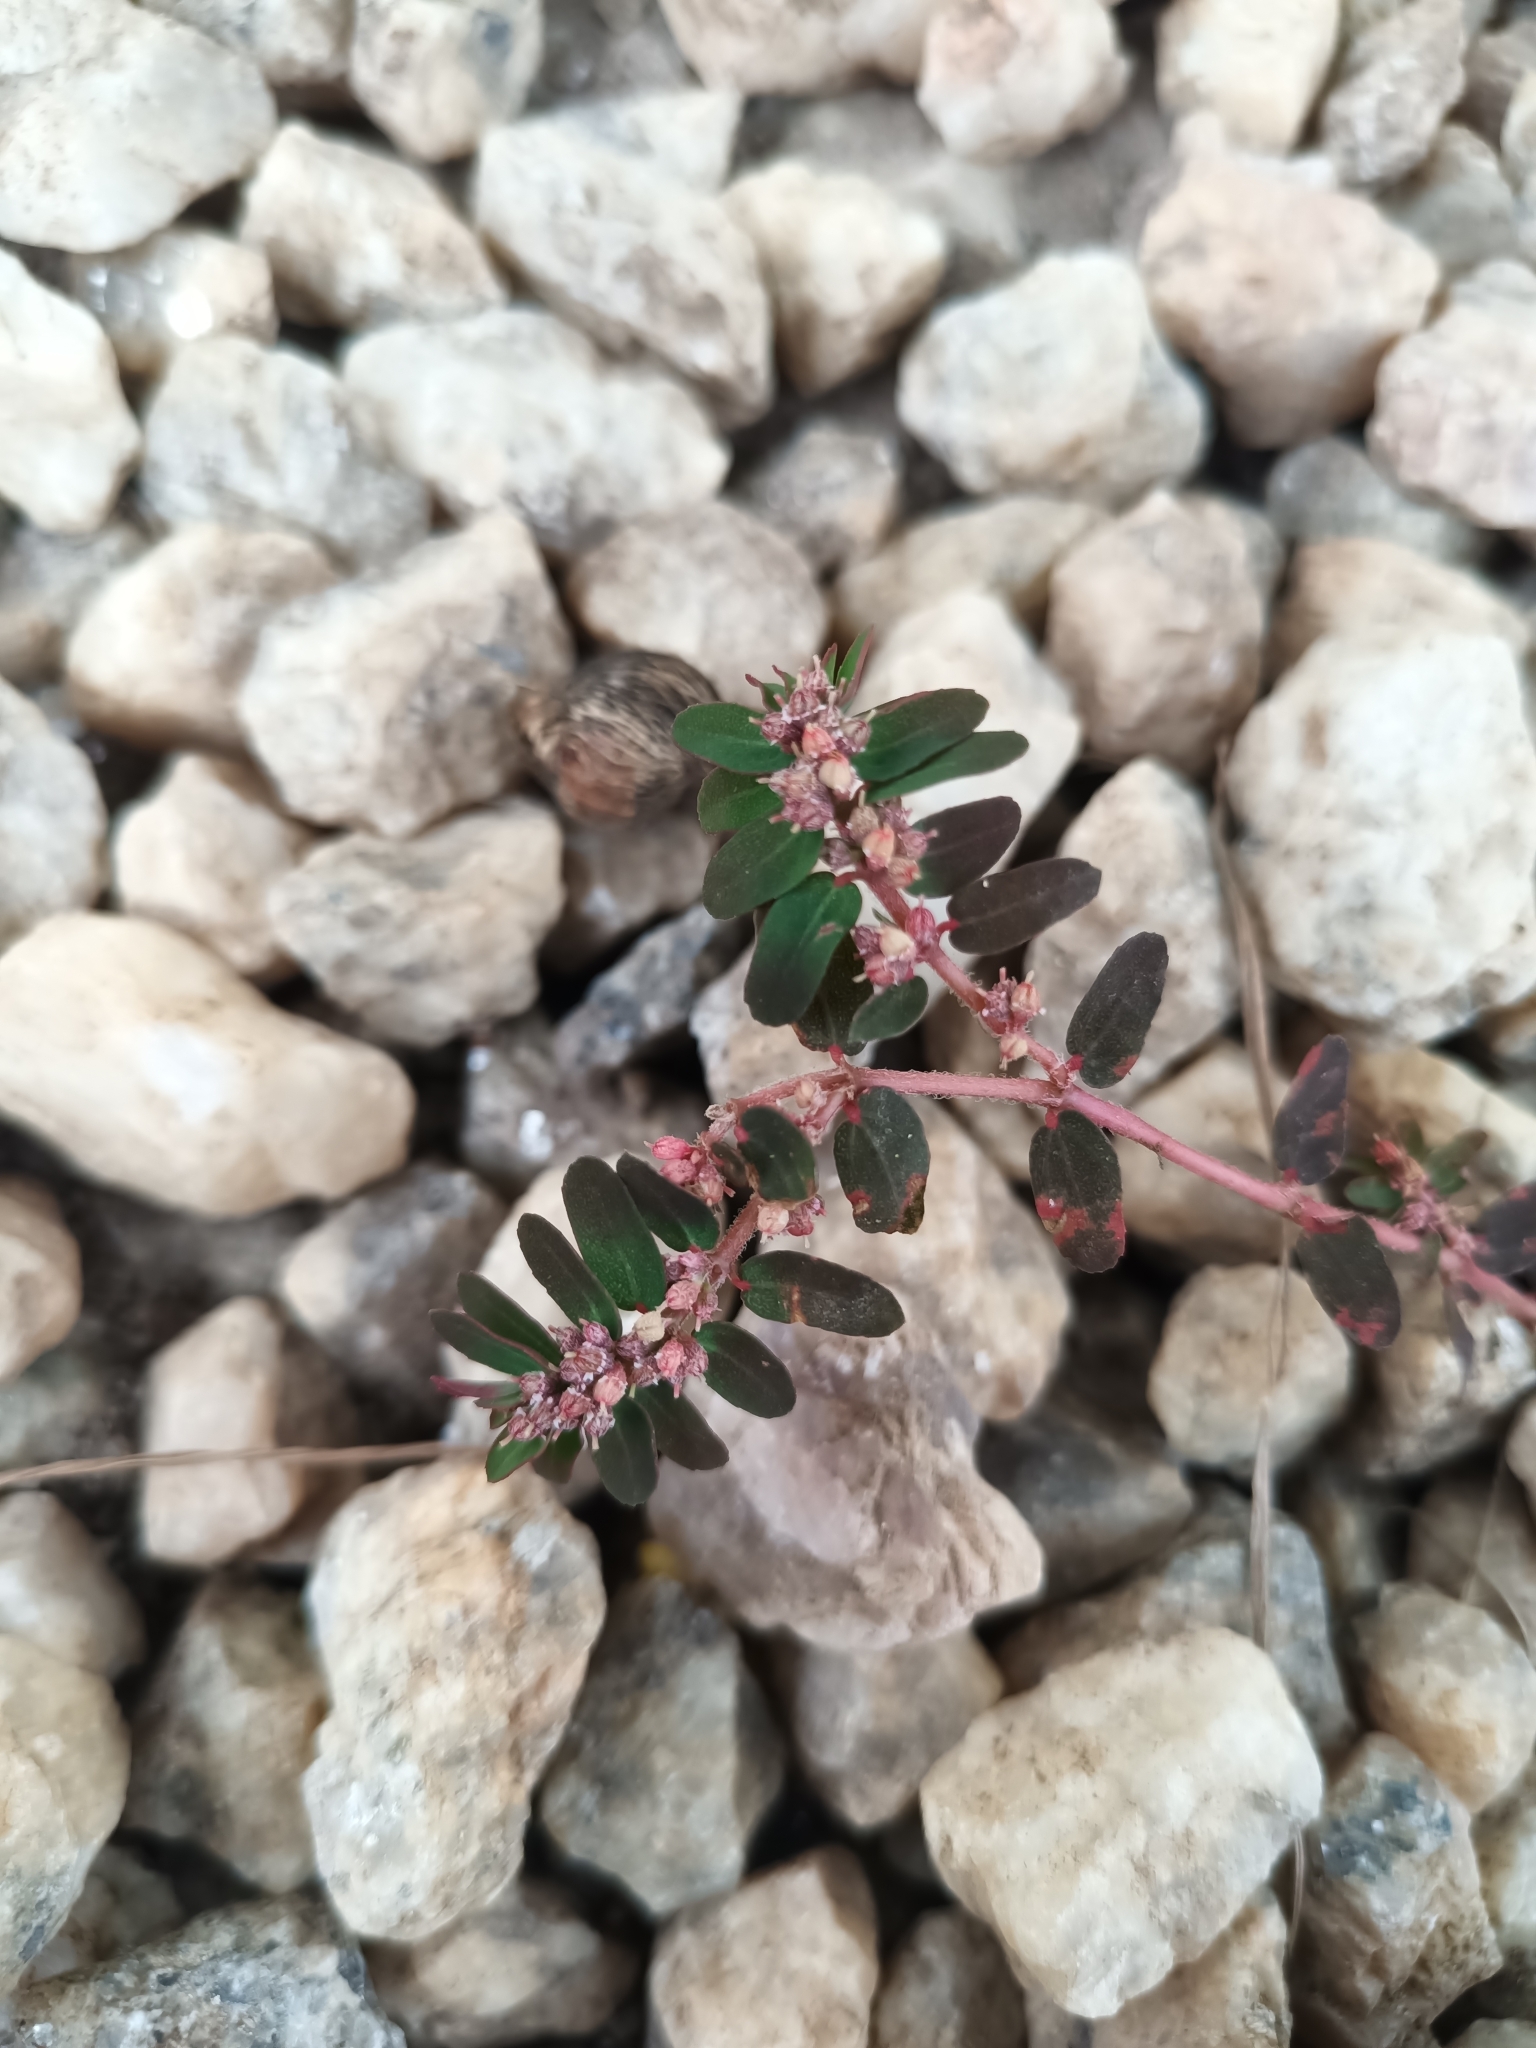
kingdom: Plantae
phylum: Tracheophyta
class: Magnoliopsida
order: Malpighiales
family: Euphorbiaceae
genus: Euphorbia
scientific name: Euphorbia thymifolia
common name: Gulf sandmat
